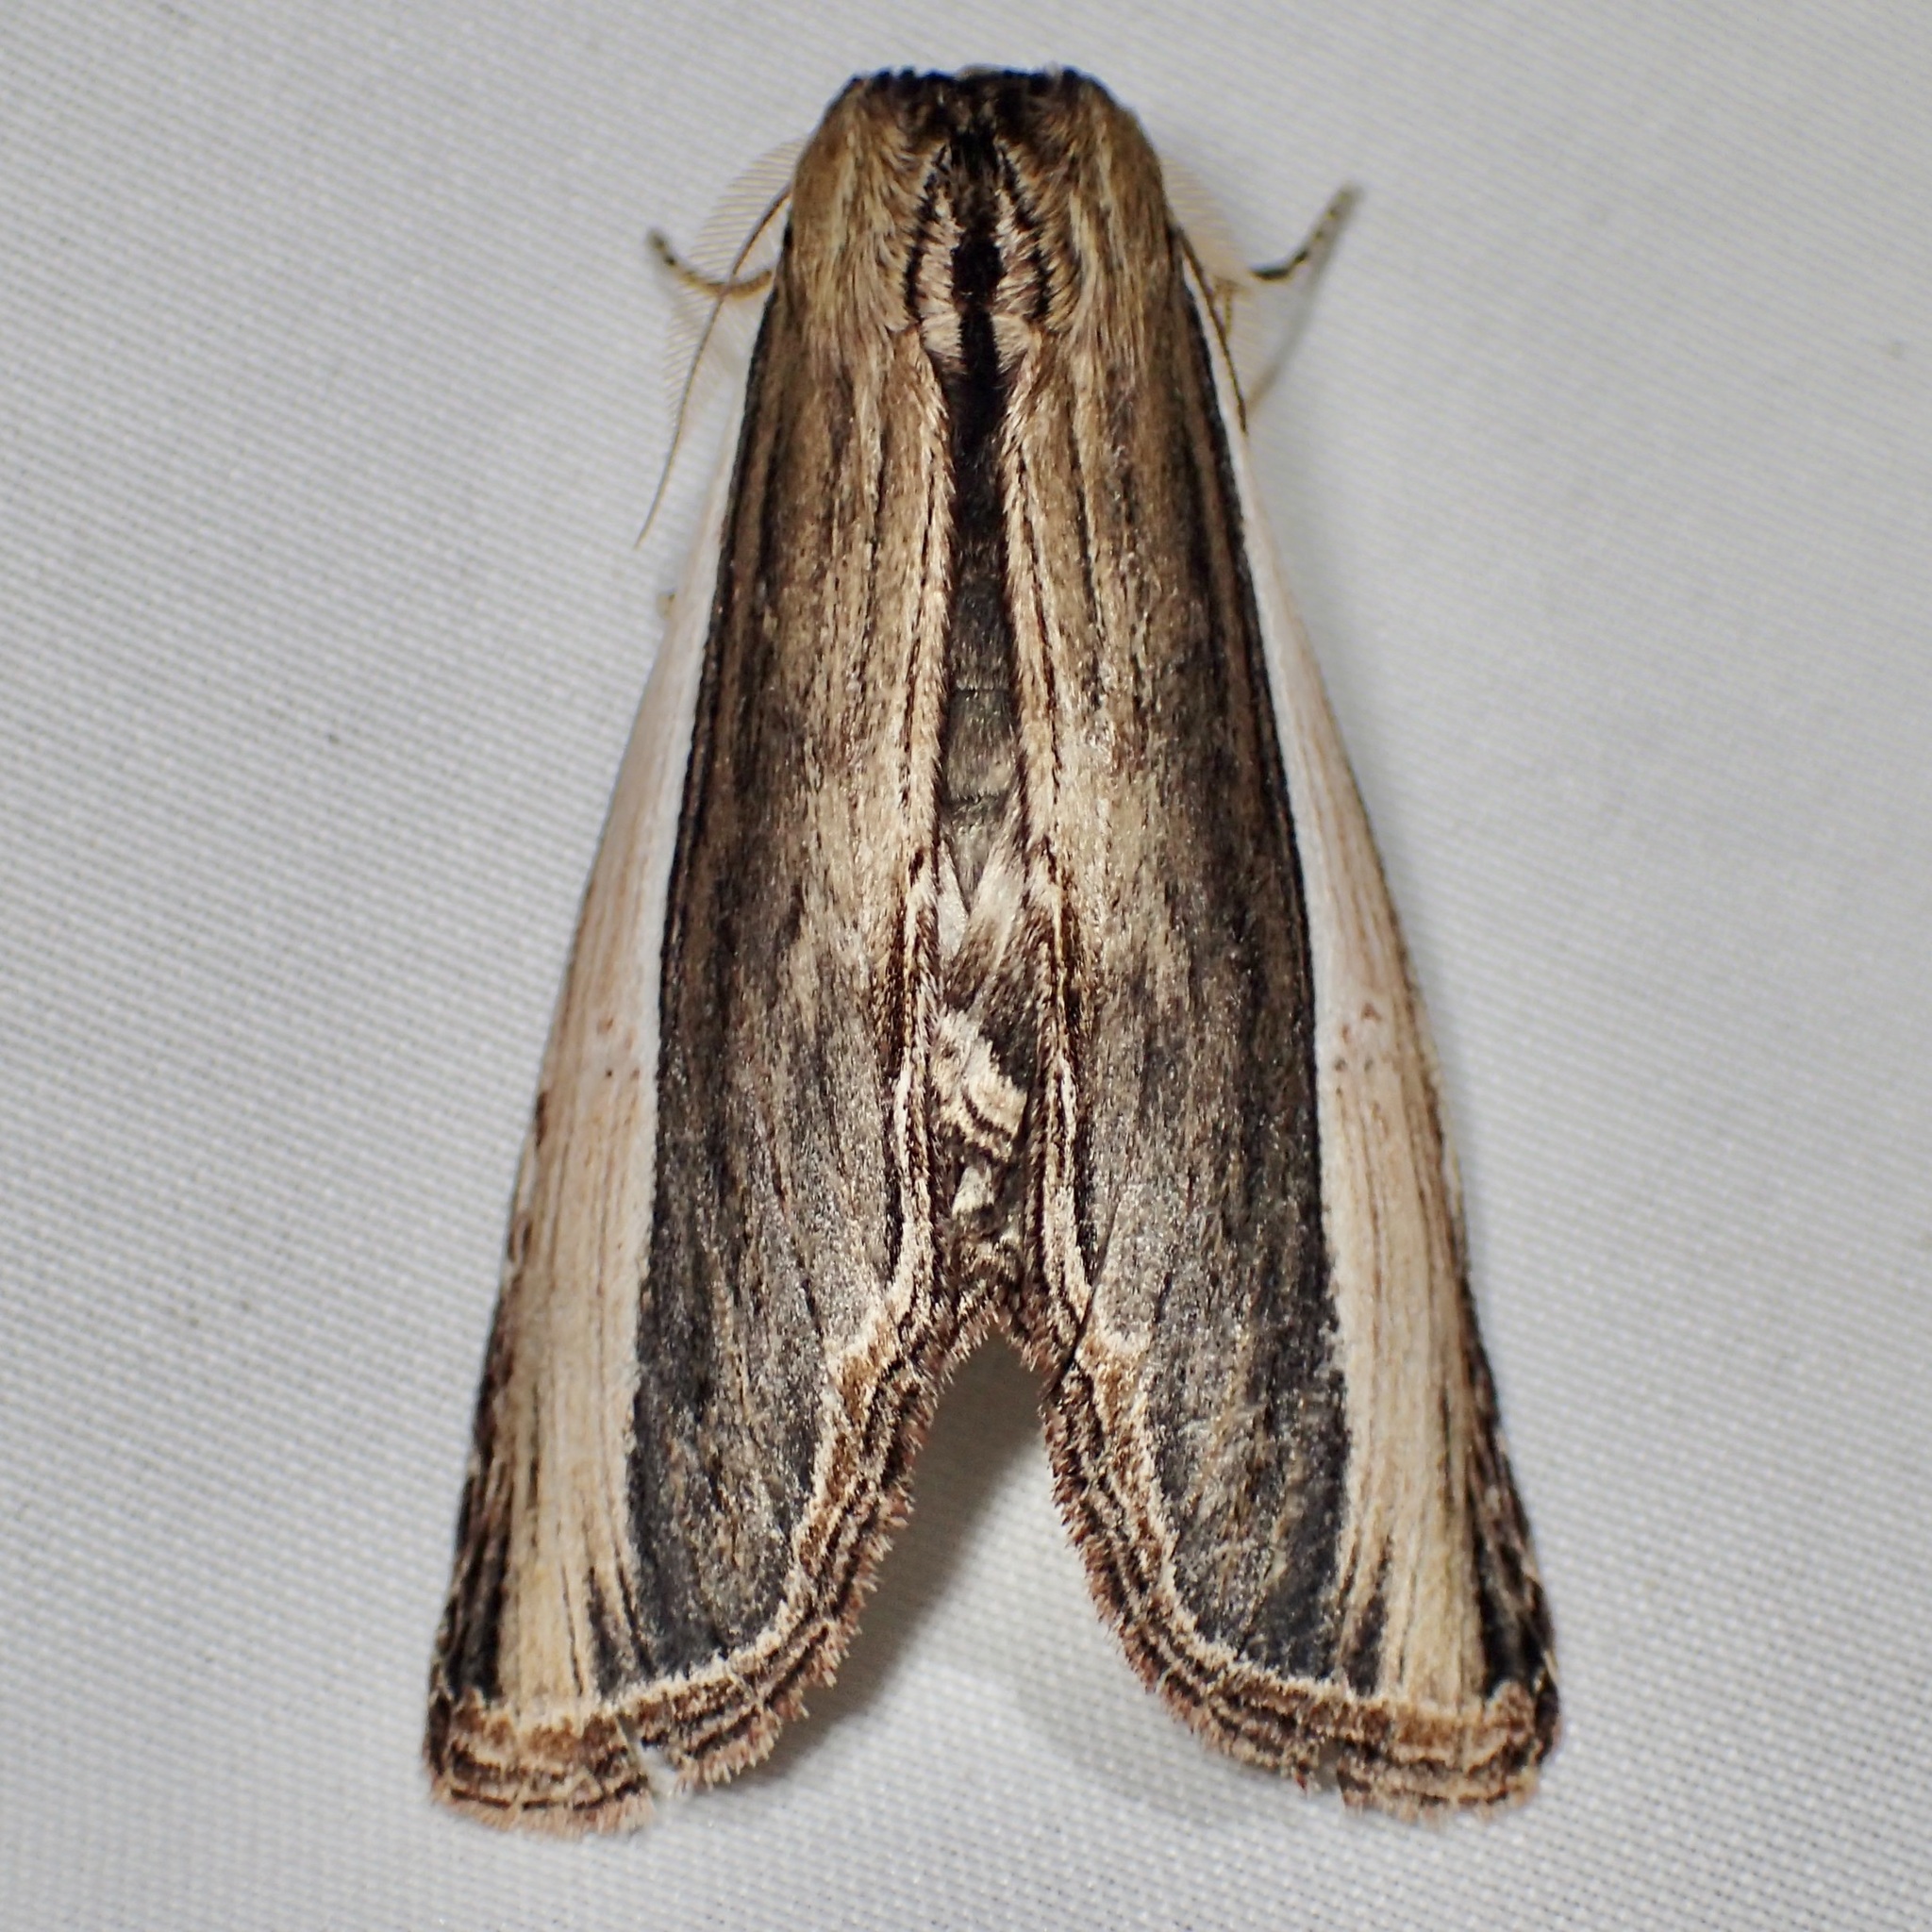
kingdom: Animalia
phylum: Arthropoda
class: Insecta
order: Lepidoptera
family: Notodontidae
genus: Truncaptera
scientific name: Truncaptera inopinata
